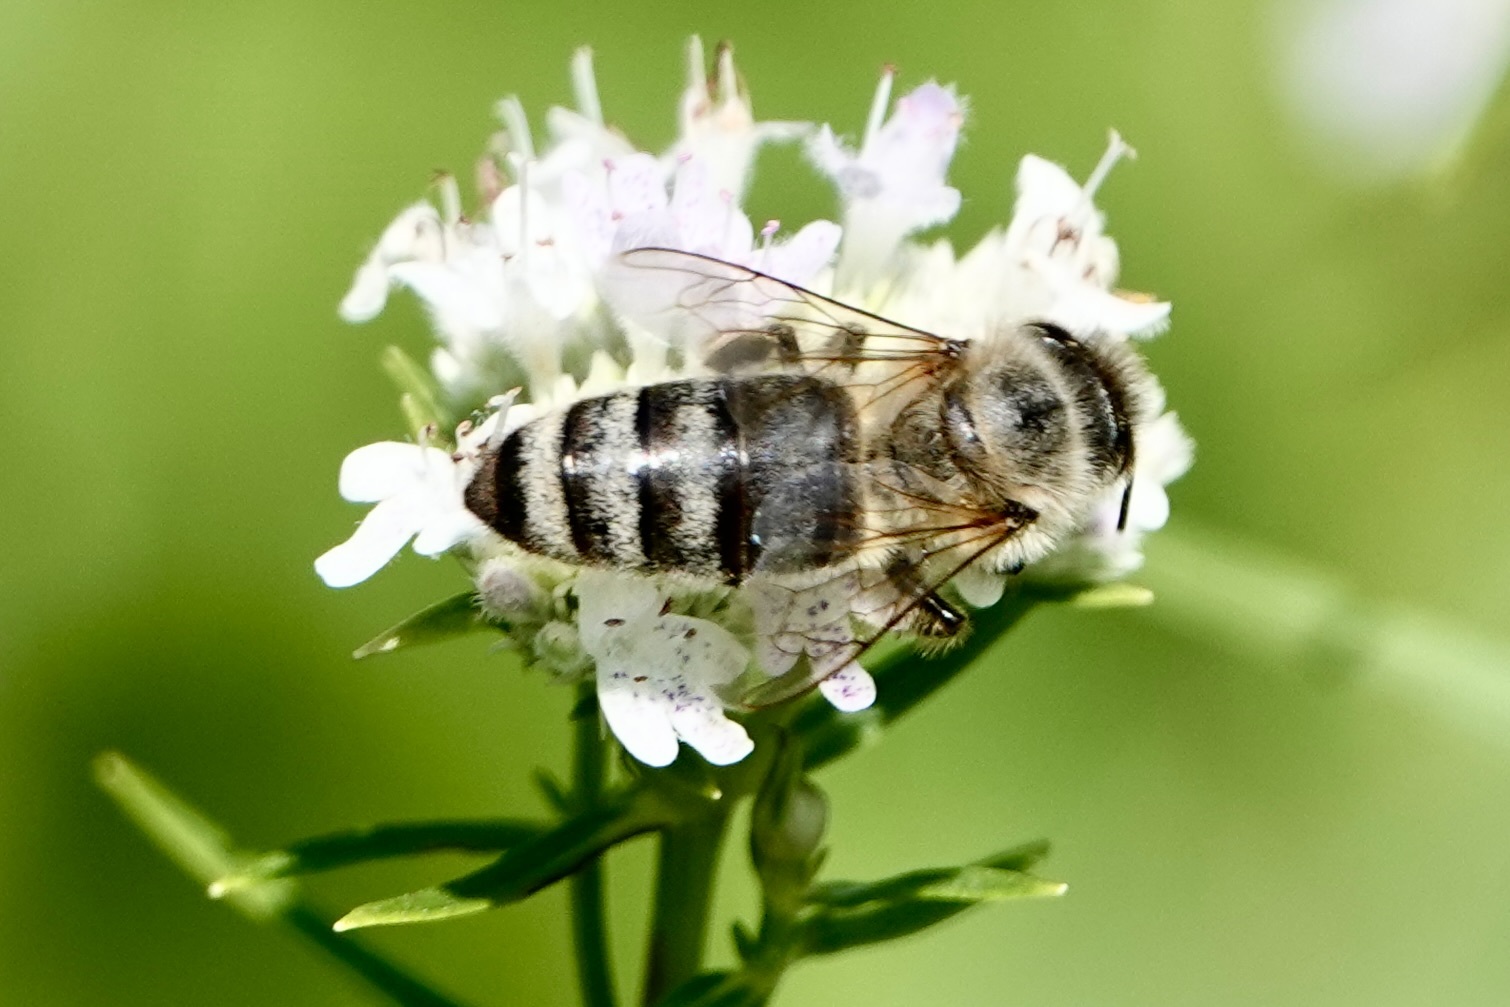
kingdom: Animalia
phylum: Arthropoda
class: Insecta
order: Hymenoptera
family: Apidae
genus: Apis
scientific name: Apis mellifera
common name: Honey bee
